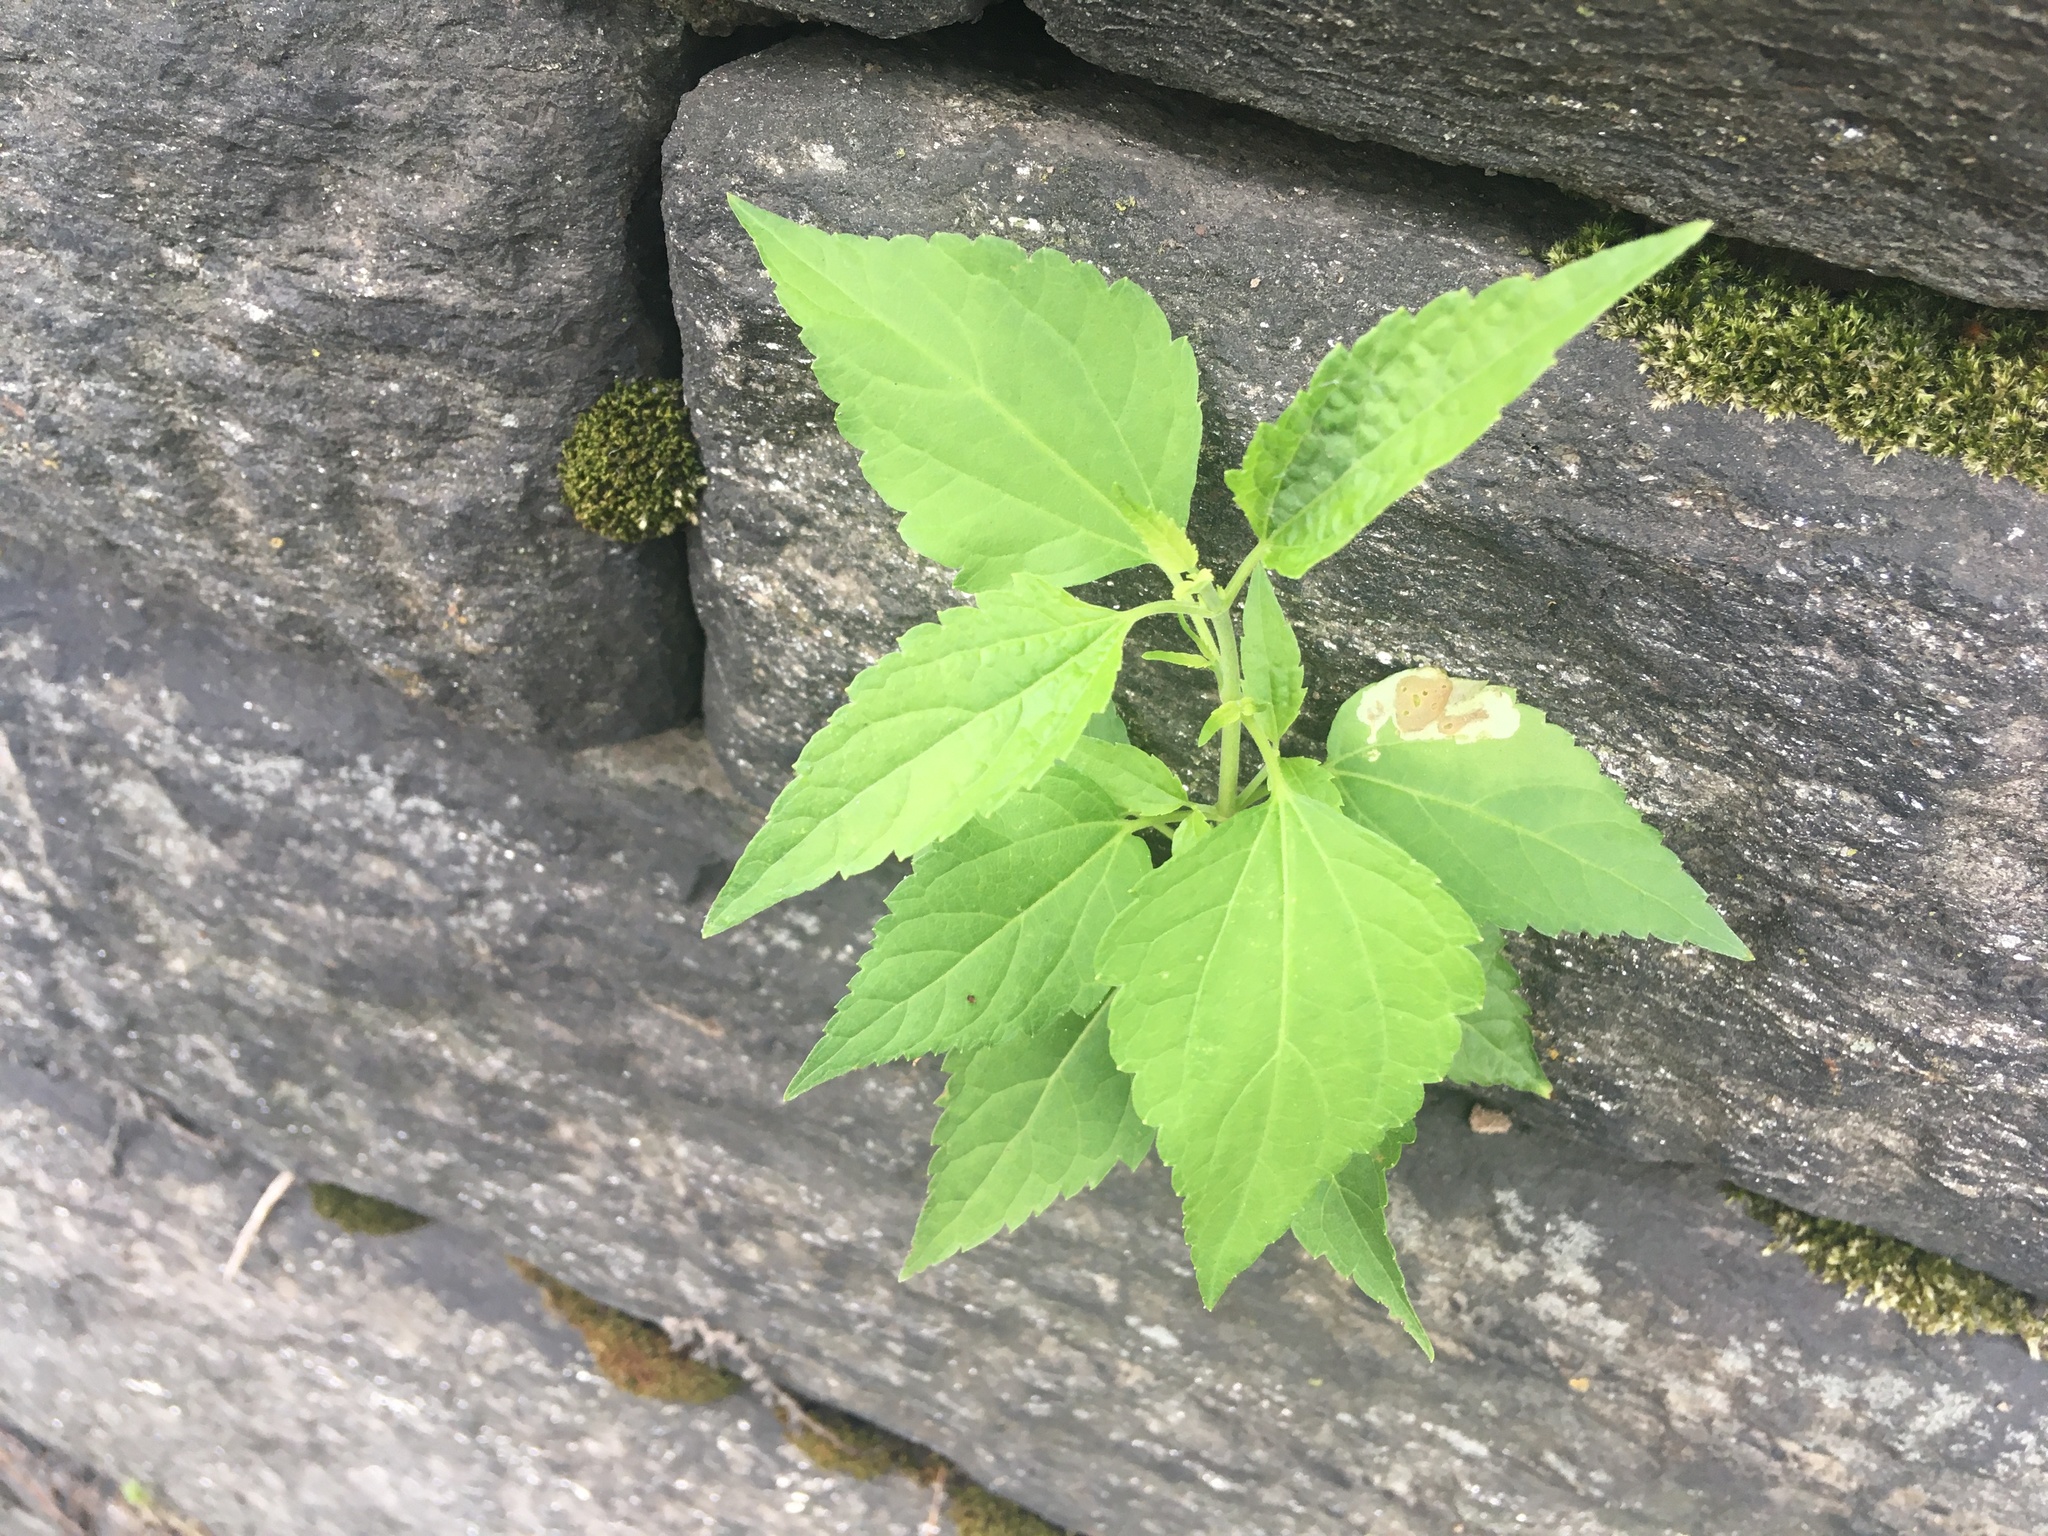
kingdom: Plantae
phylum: Tracheophyta
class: Magnoliopsida
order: Asterales
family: Asteraceae
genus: Ageratina
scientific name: Ageratina altissima
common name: White snakeroot
